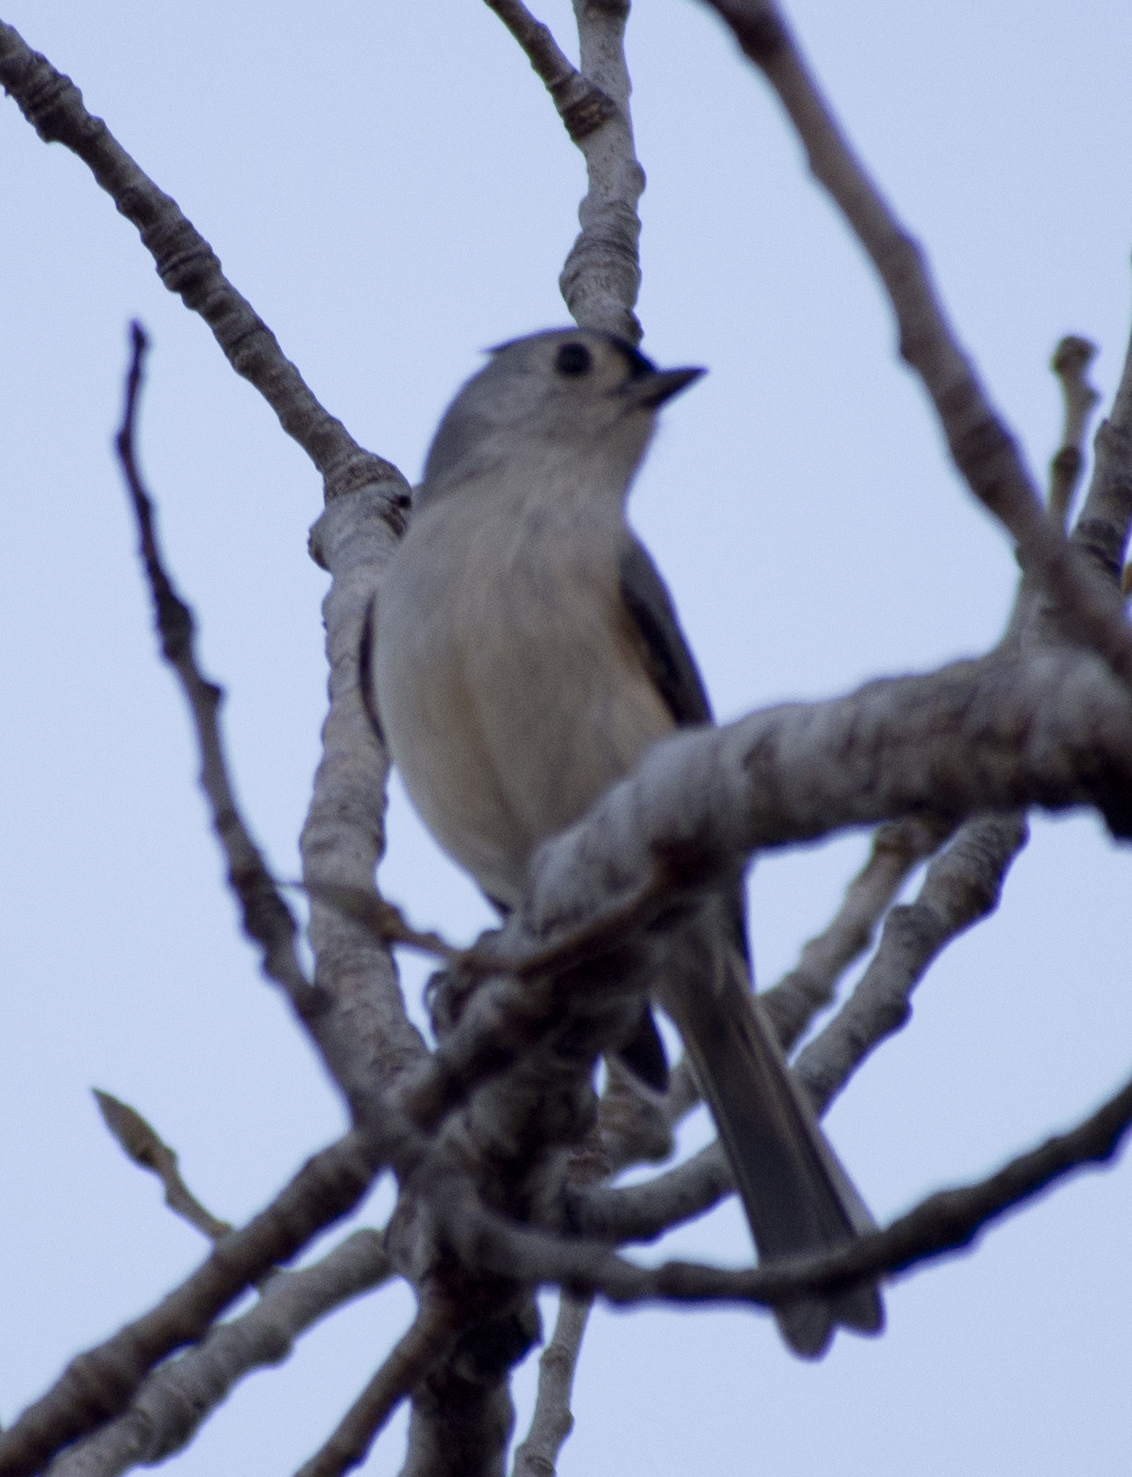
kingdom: Animalia
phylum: Chordata
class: Aves
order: Passeriformes
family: Paridae
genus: Baeolophus
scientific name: Baeolophus bicolor
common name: Tufted titmouse
